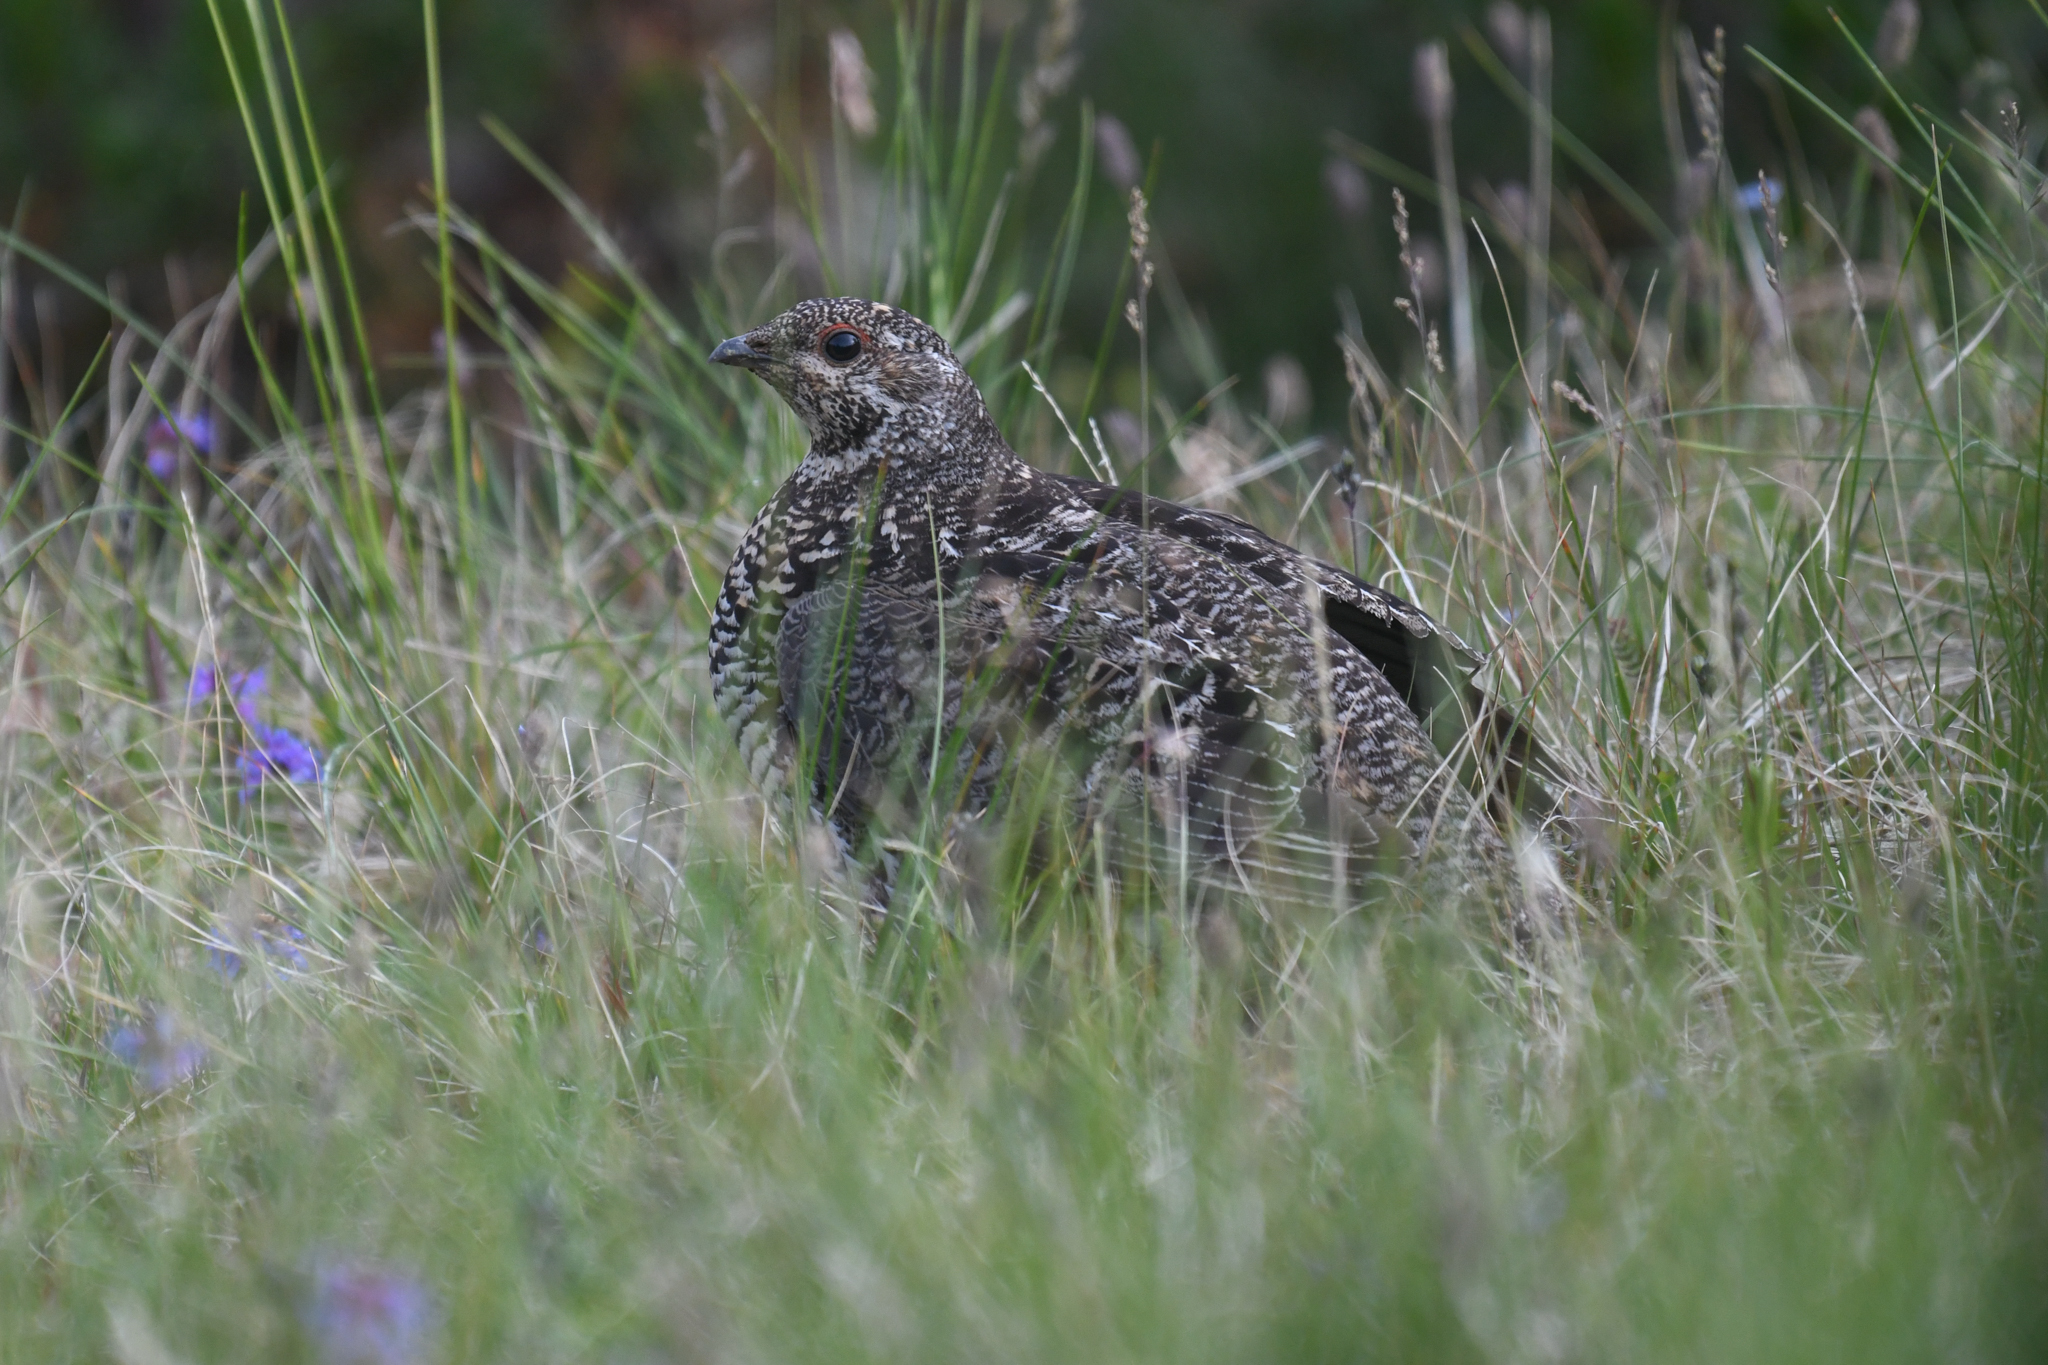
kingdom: Animalia
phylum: Chordata
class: Aves
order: Galliformes
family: Phasianidae
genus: Canachites
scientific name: Canachites canadensis
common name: Spruce grouse
